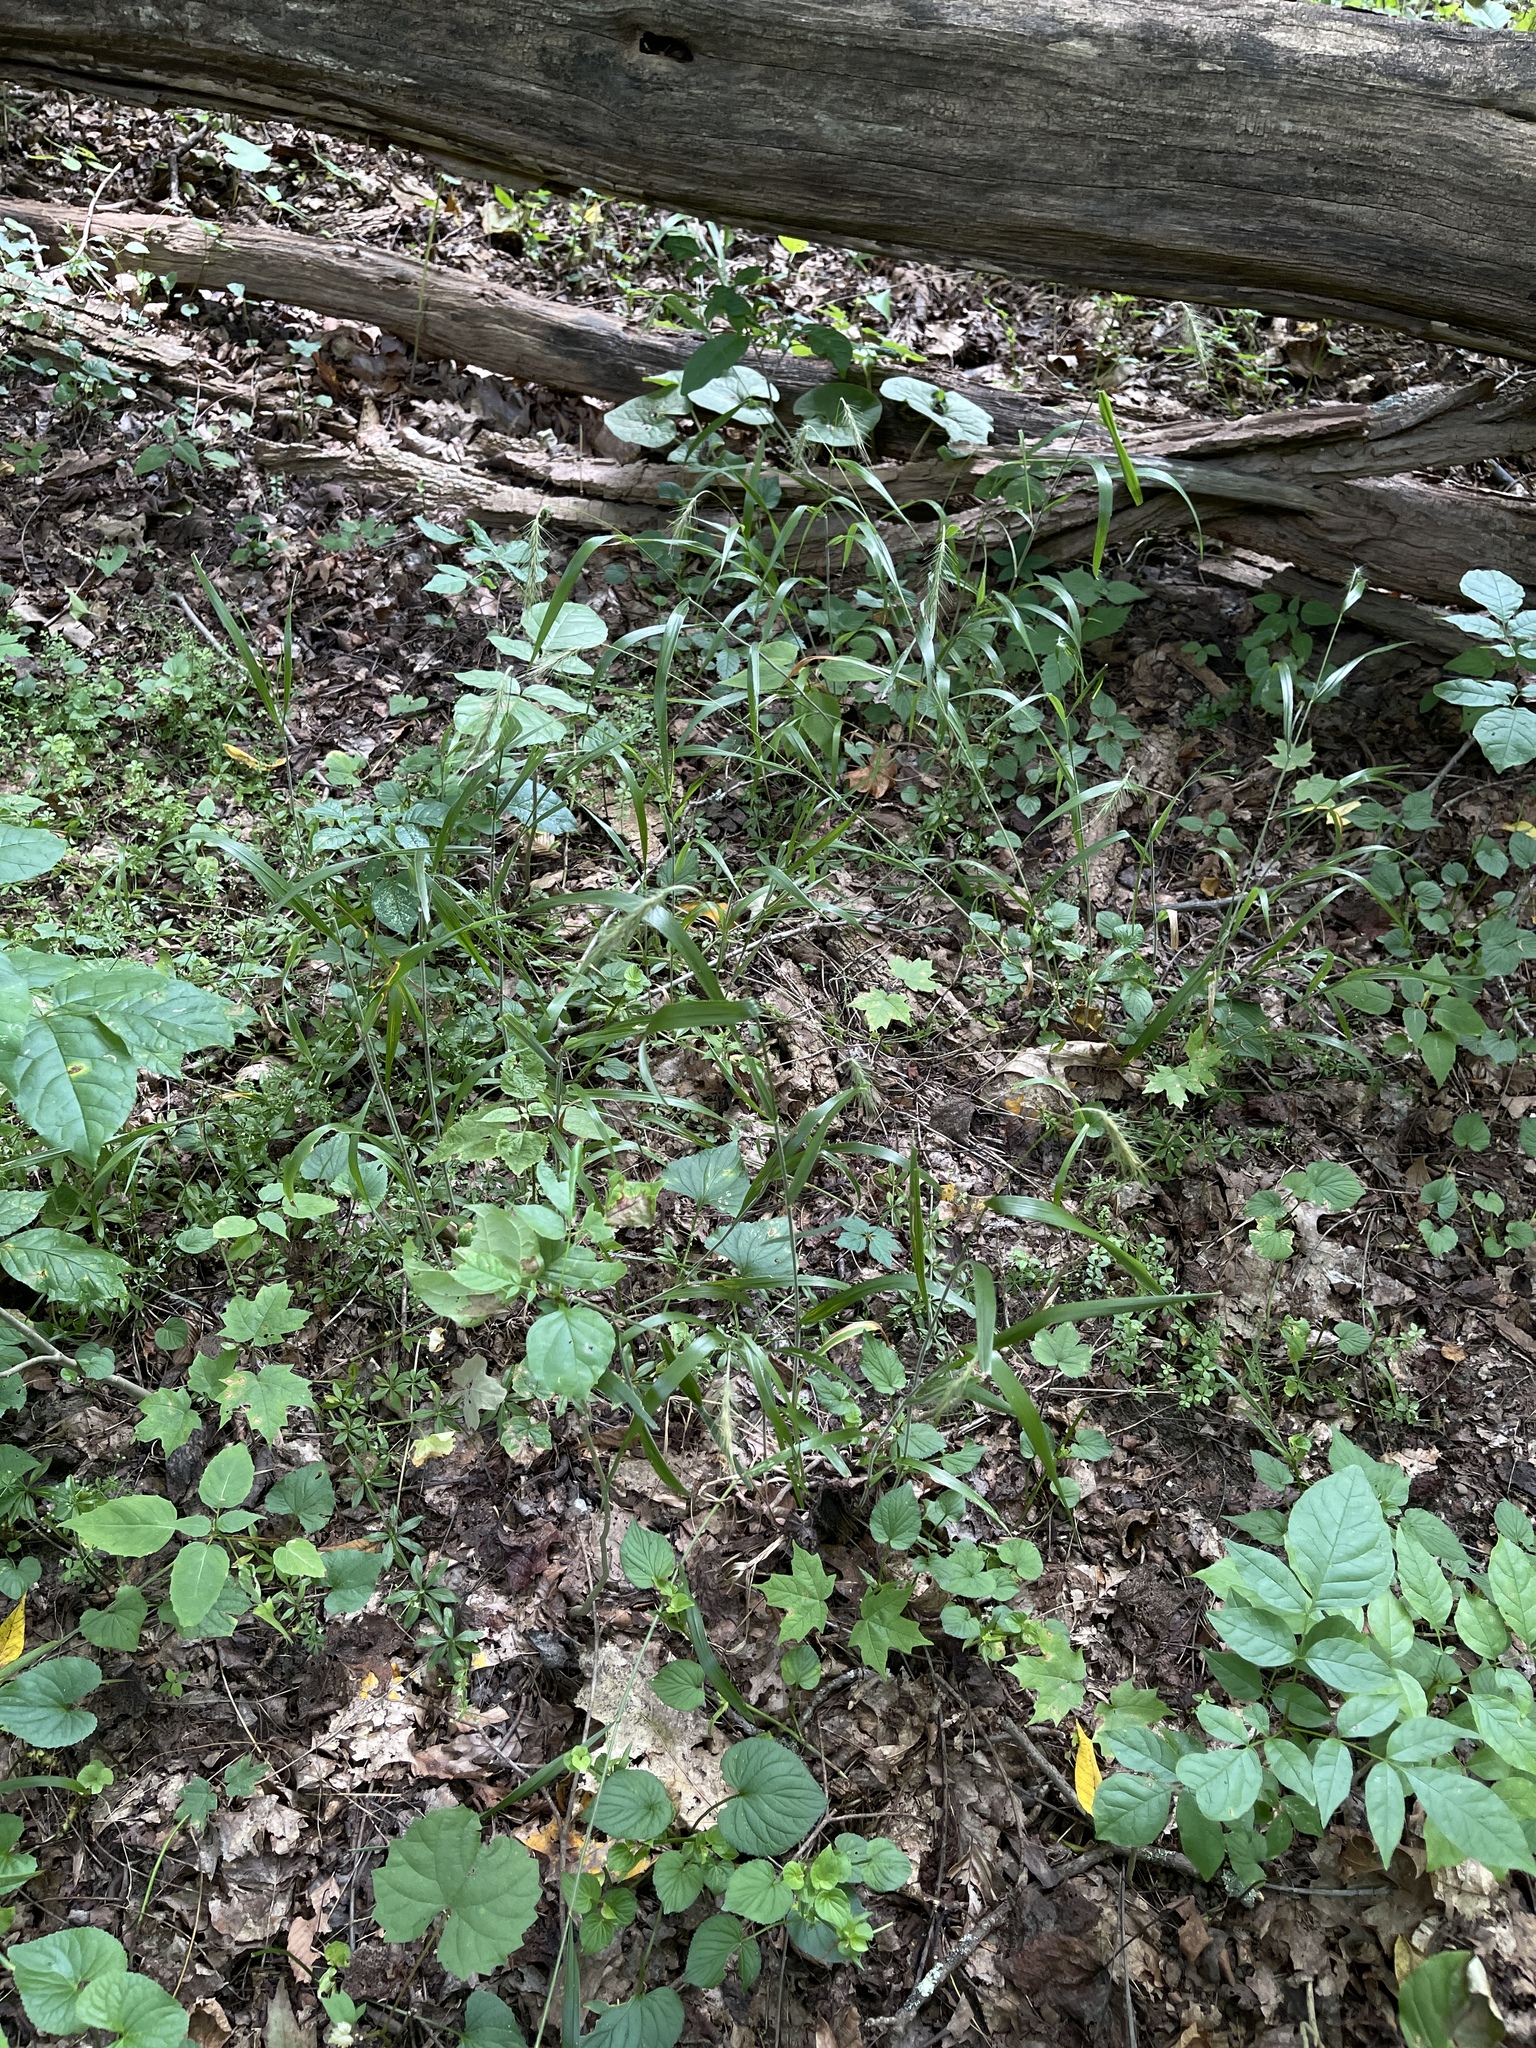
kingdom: Plantae
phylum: Tracheophyta
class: Liliopsida
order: Poales
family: Poaceae
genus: Elymus
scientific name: Elymus villosus
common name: Downy wild rye
